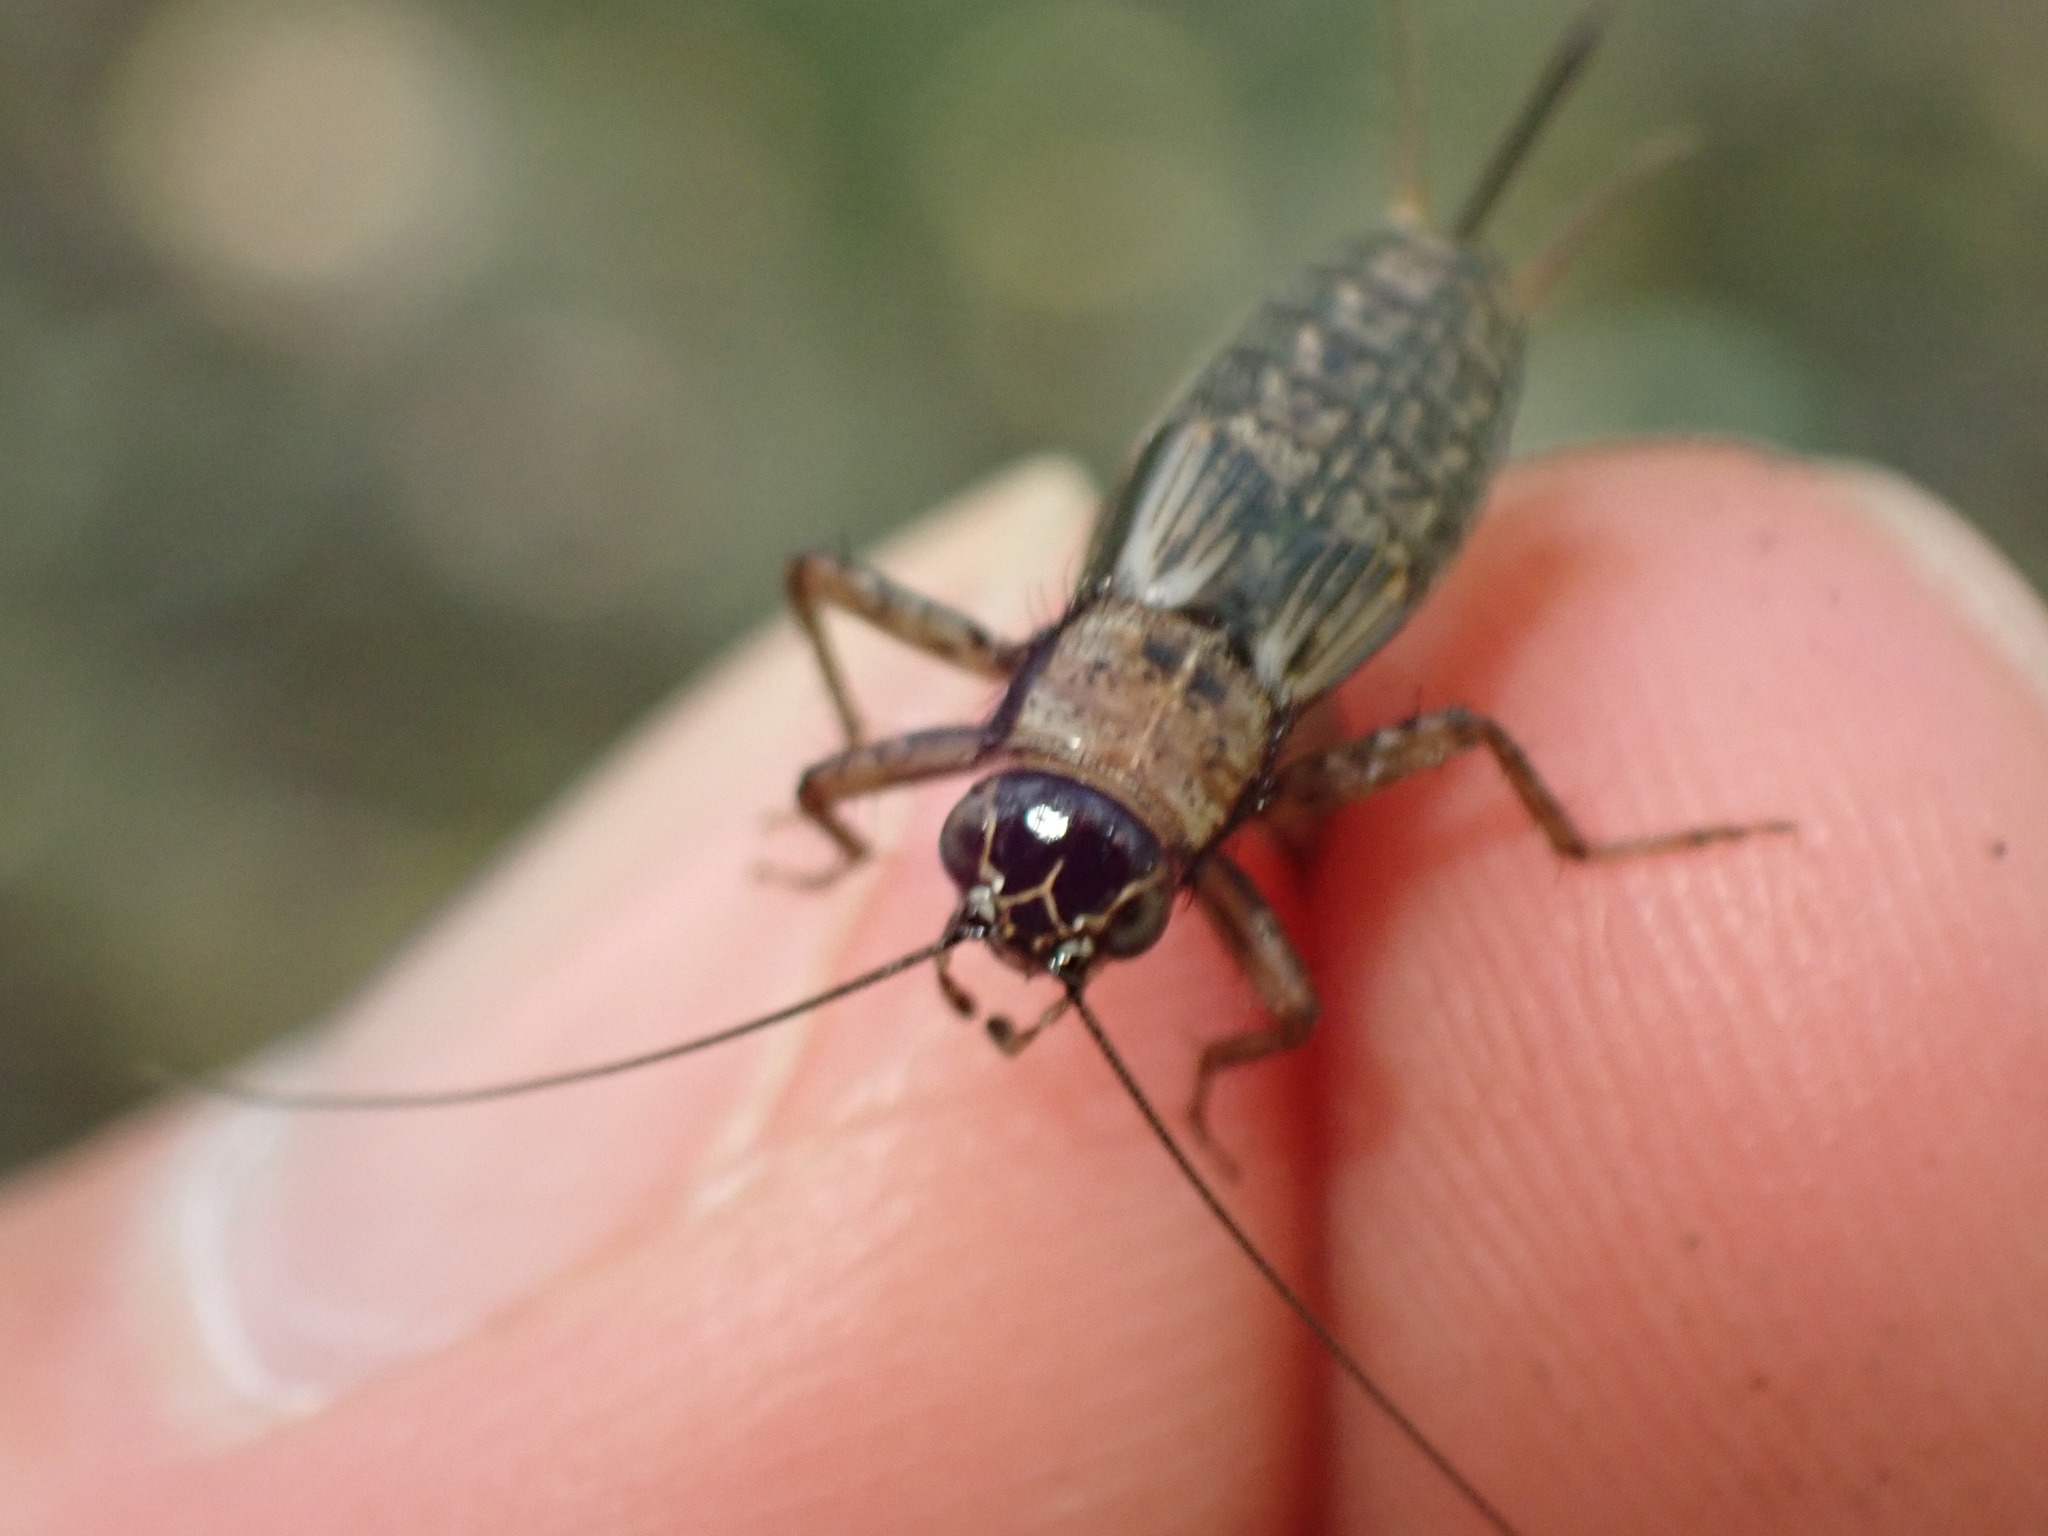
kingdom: Animalia
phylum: Arthropoda
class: Insecta
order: Orthoptera
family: Trigonidiidae
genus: Nemobius
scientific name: Nemobius sylvestris
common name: Wood-cricket
